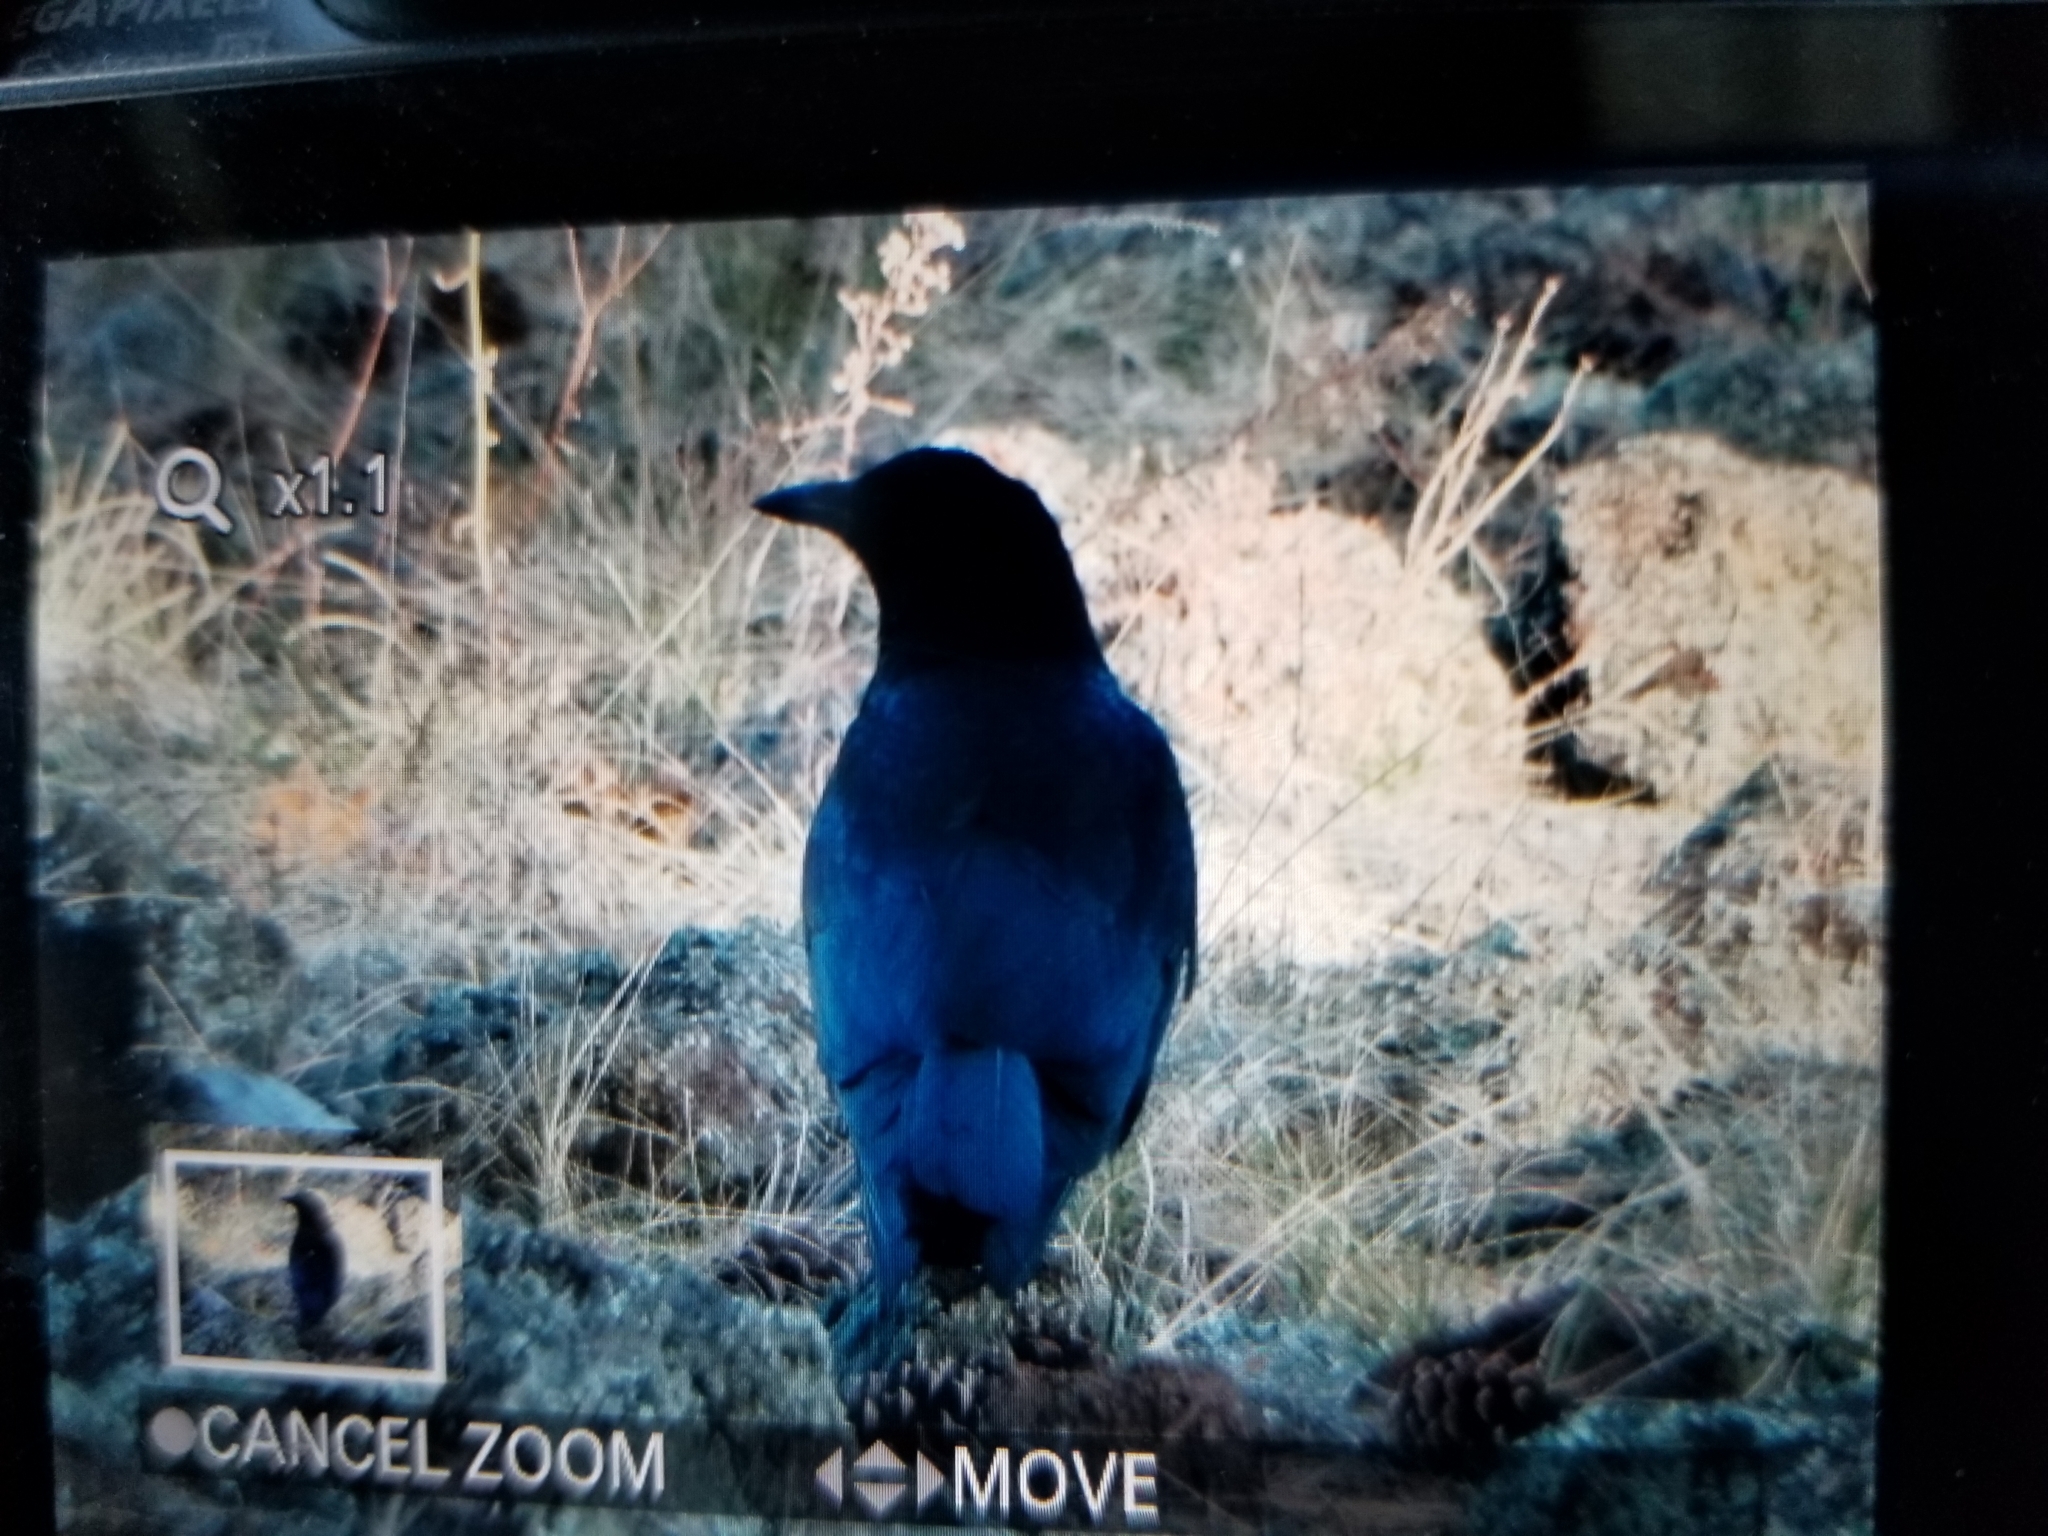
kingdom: Animalia
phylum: Chordata
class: Aves
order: Passeriformes
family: Corvidae
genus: Corvus
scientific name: Corvus brachyrhynchos
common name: American crow
